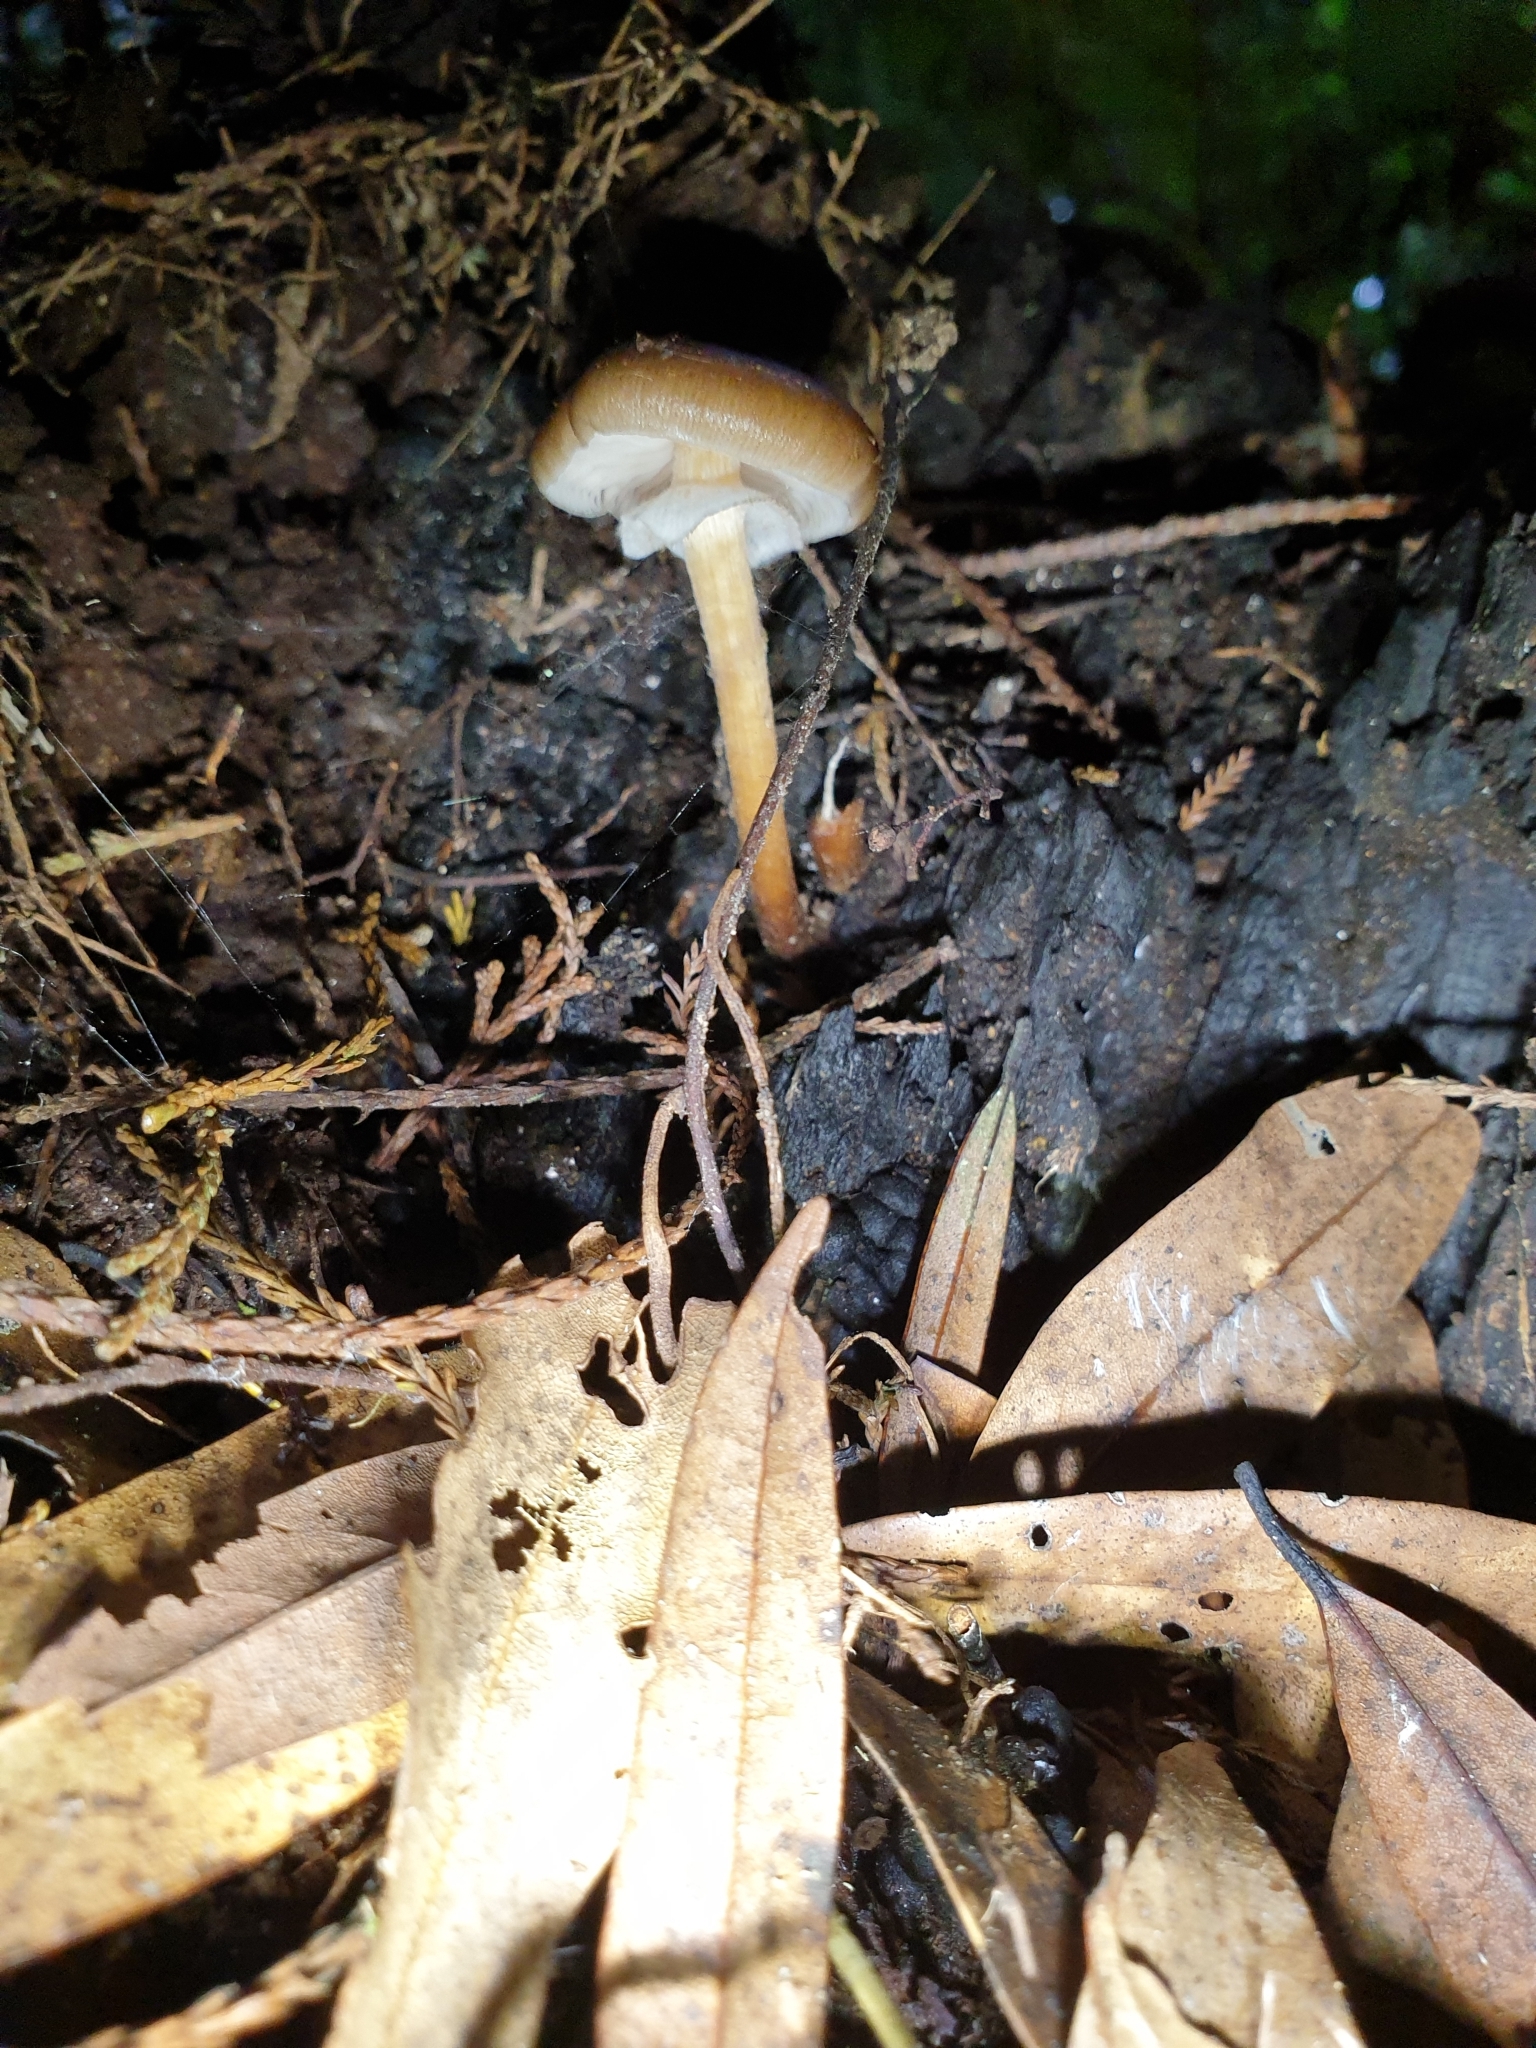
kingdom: Fungi
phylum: Basidiomycota
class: Agaricomycetes
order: Agaricales
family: Physalacriaceae
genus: Armillaria
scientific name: Armillaria novae-zelandiae
